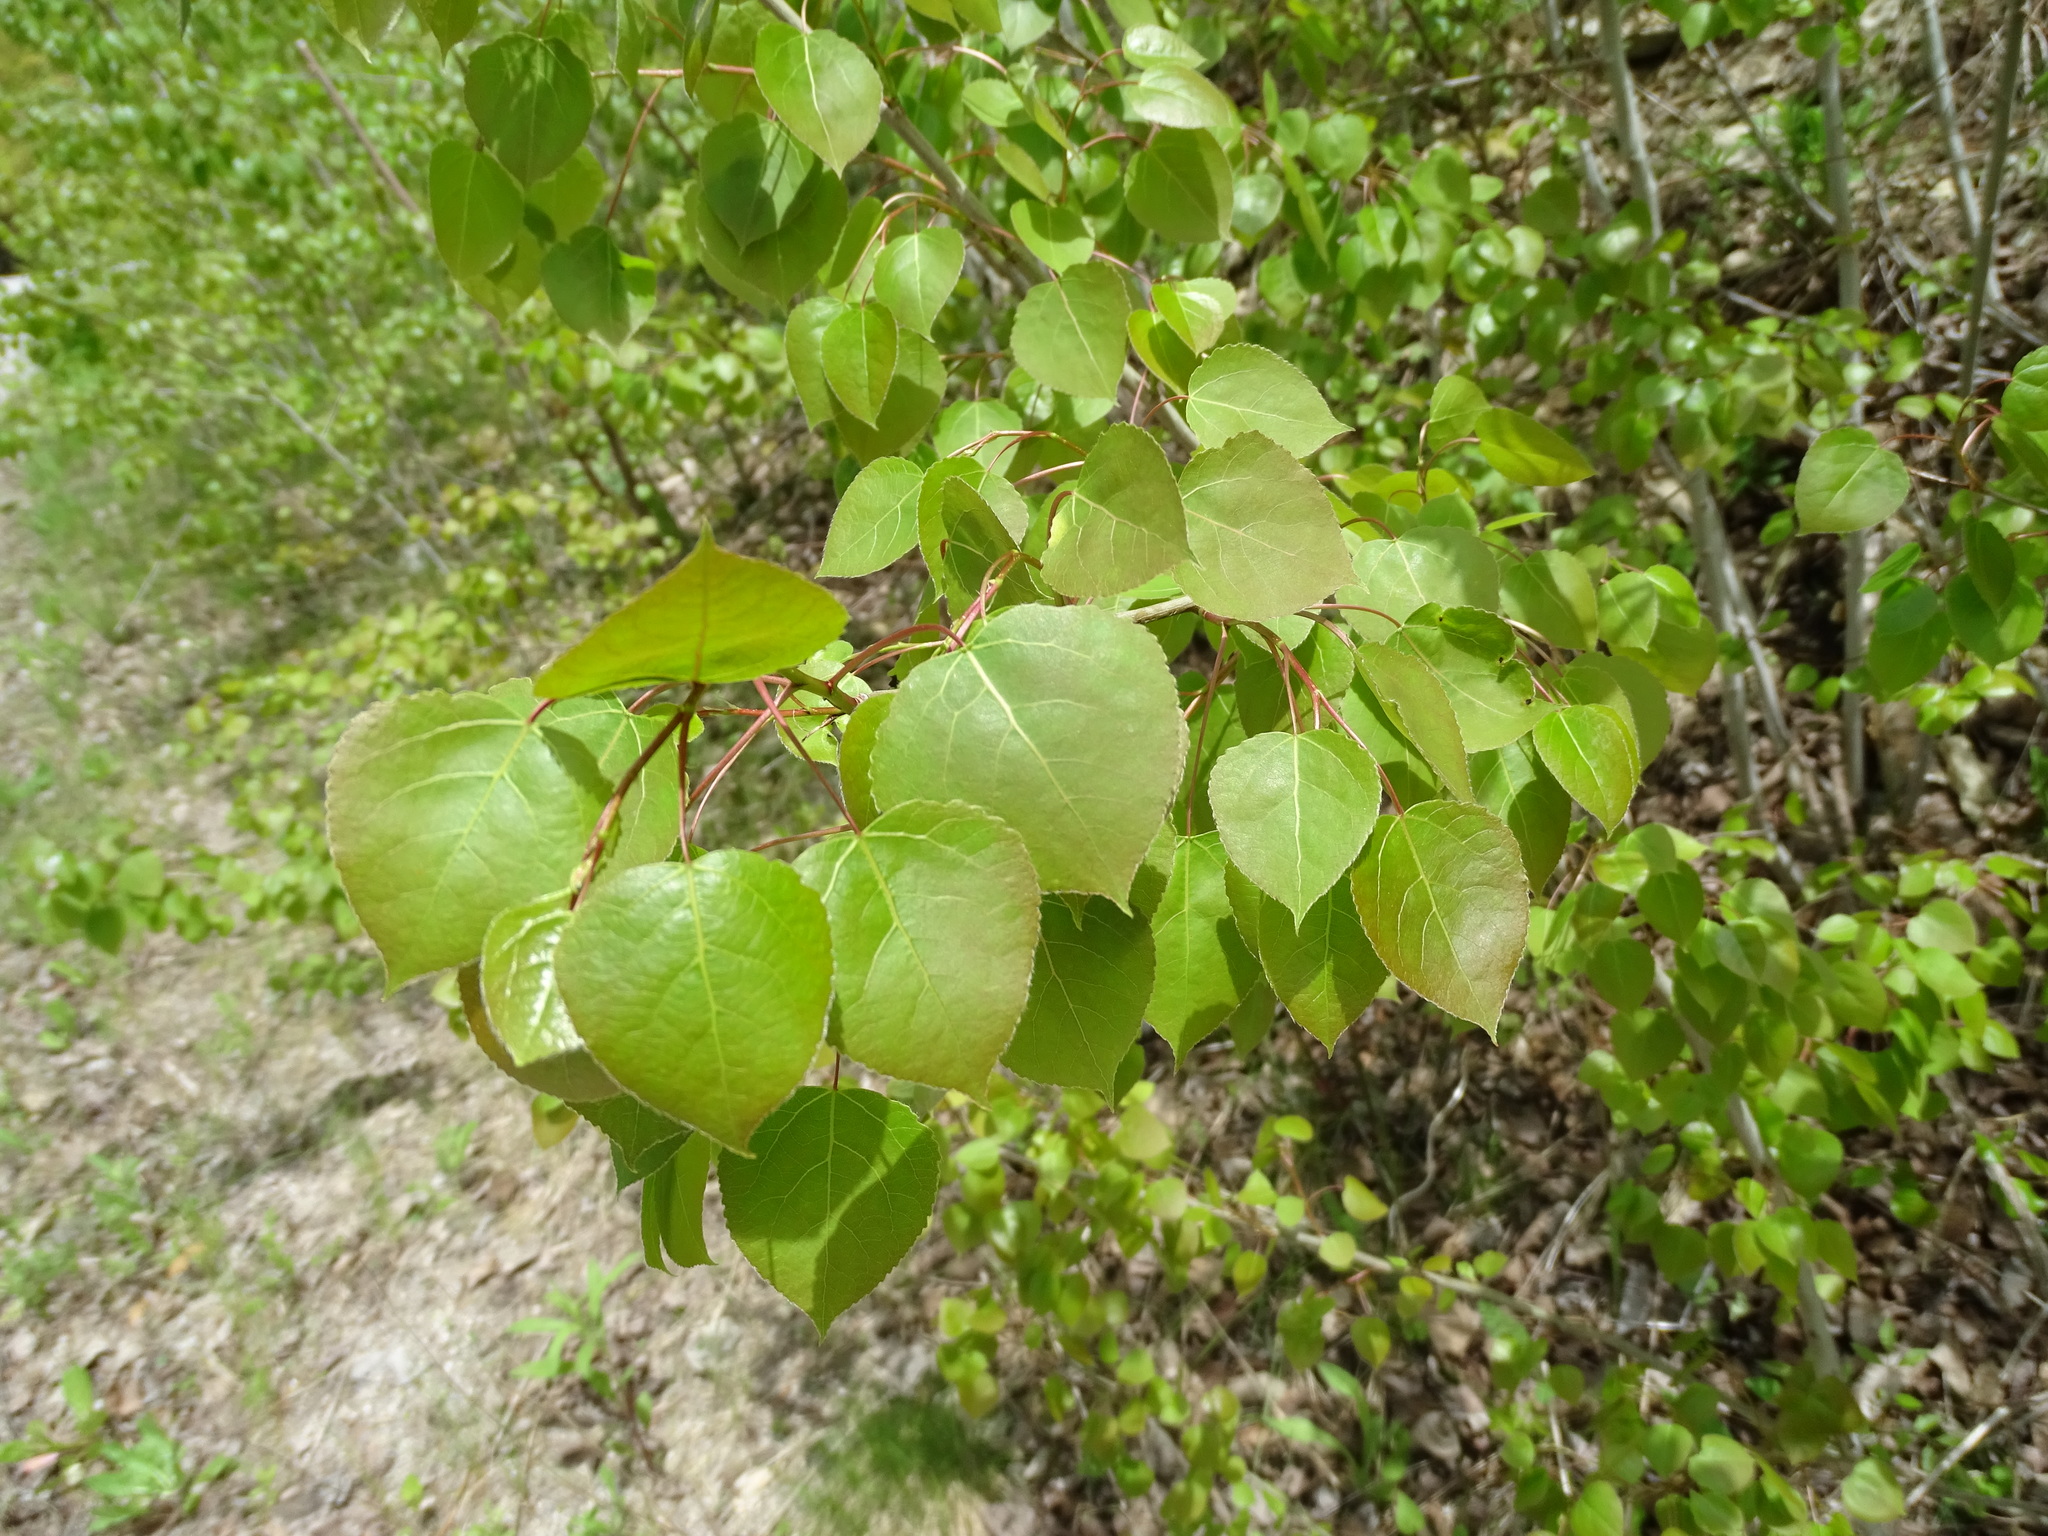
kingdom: Plantae
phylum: Tracheophyta
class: Magnoliopsida
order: Malpighiales
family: Salicaceae
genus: Populus
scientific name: Populus tremuloides
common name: Quaking aspen
